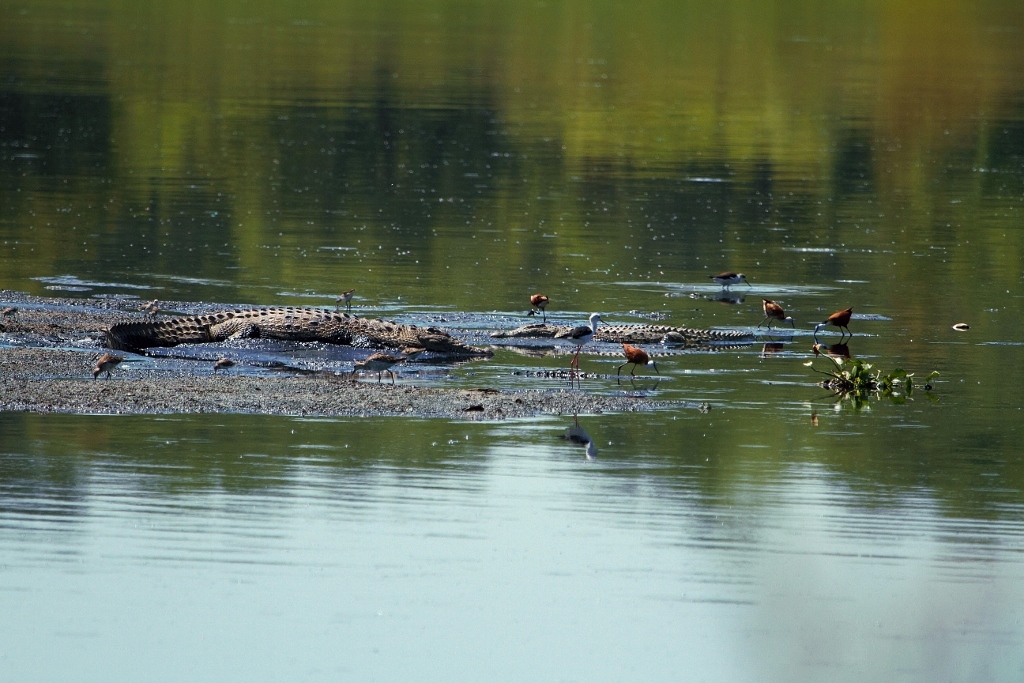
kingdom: Animalia
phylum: Chordata
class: Crocodylia
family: Crocodylidae
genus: Crocodylus
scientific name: Crocodylus niloticus
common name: Nile crocodile
